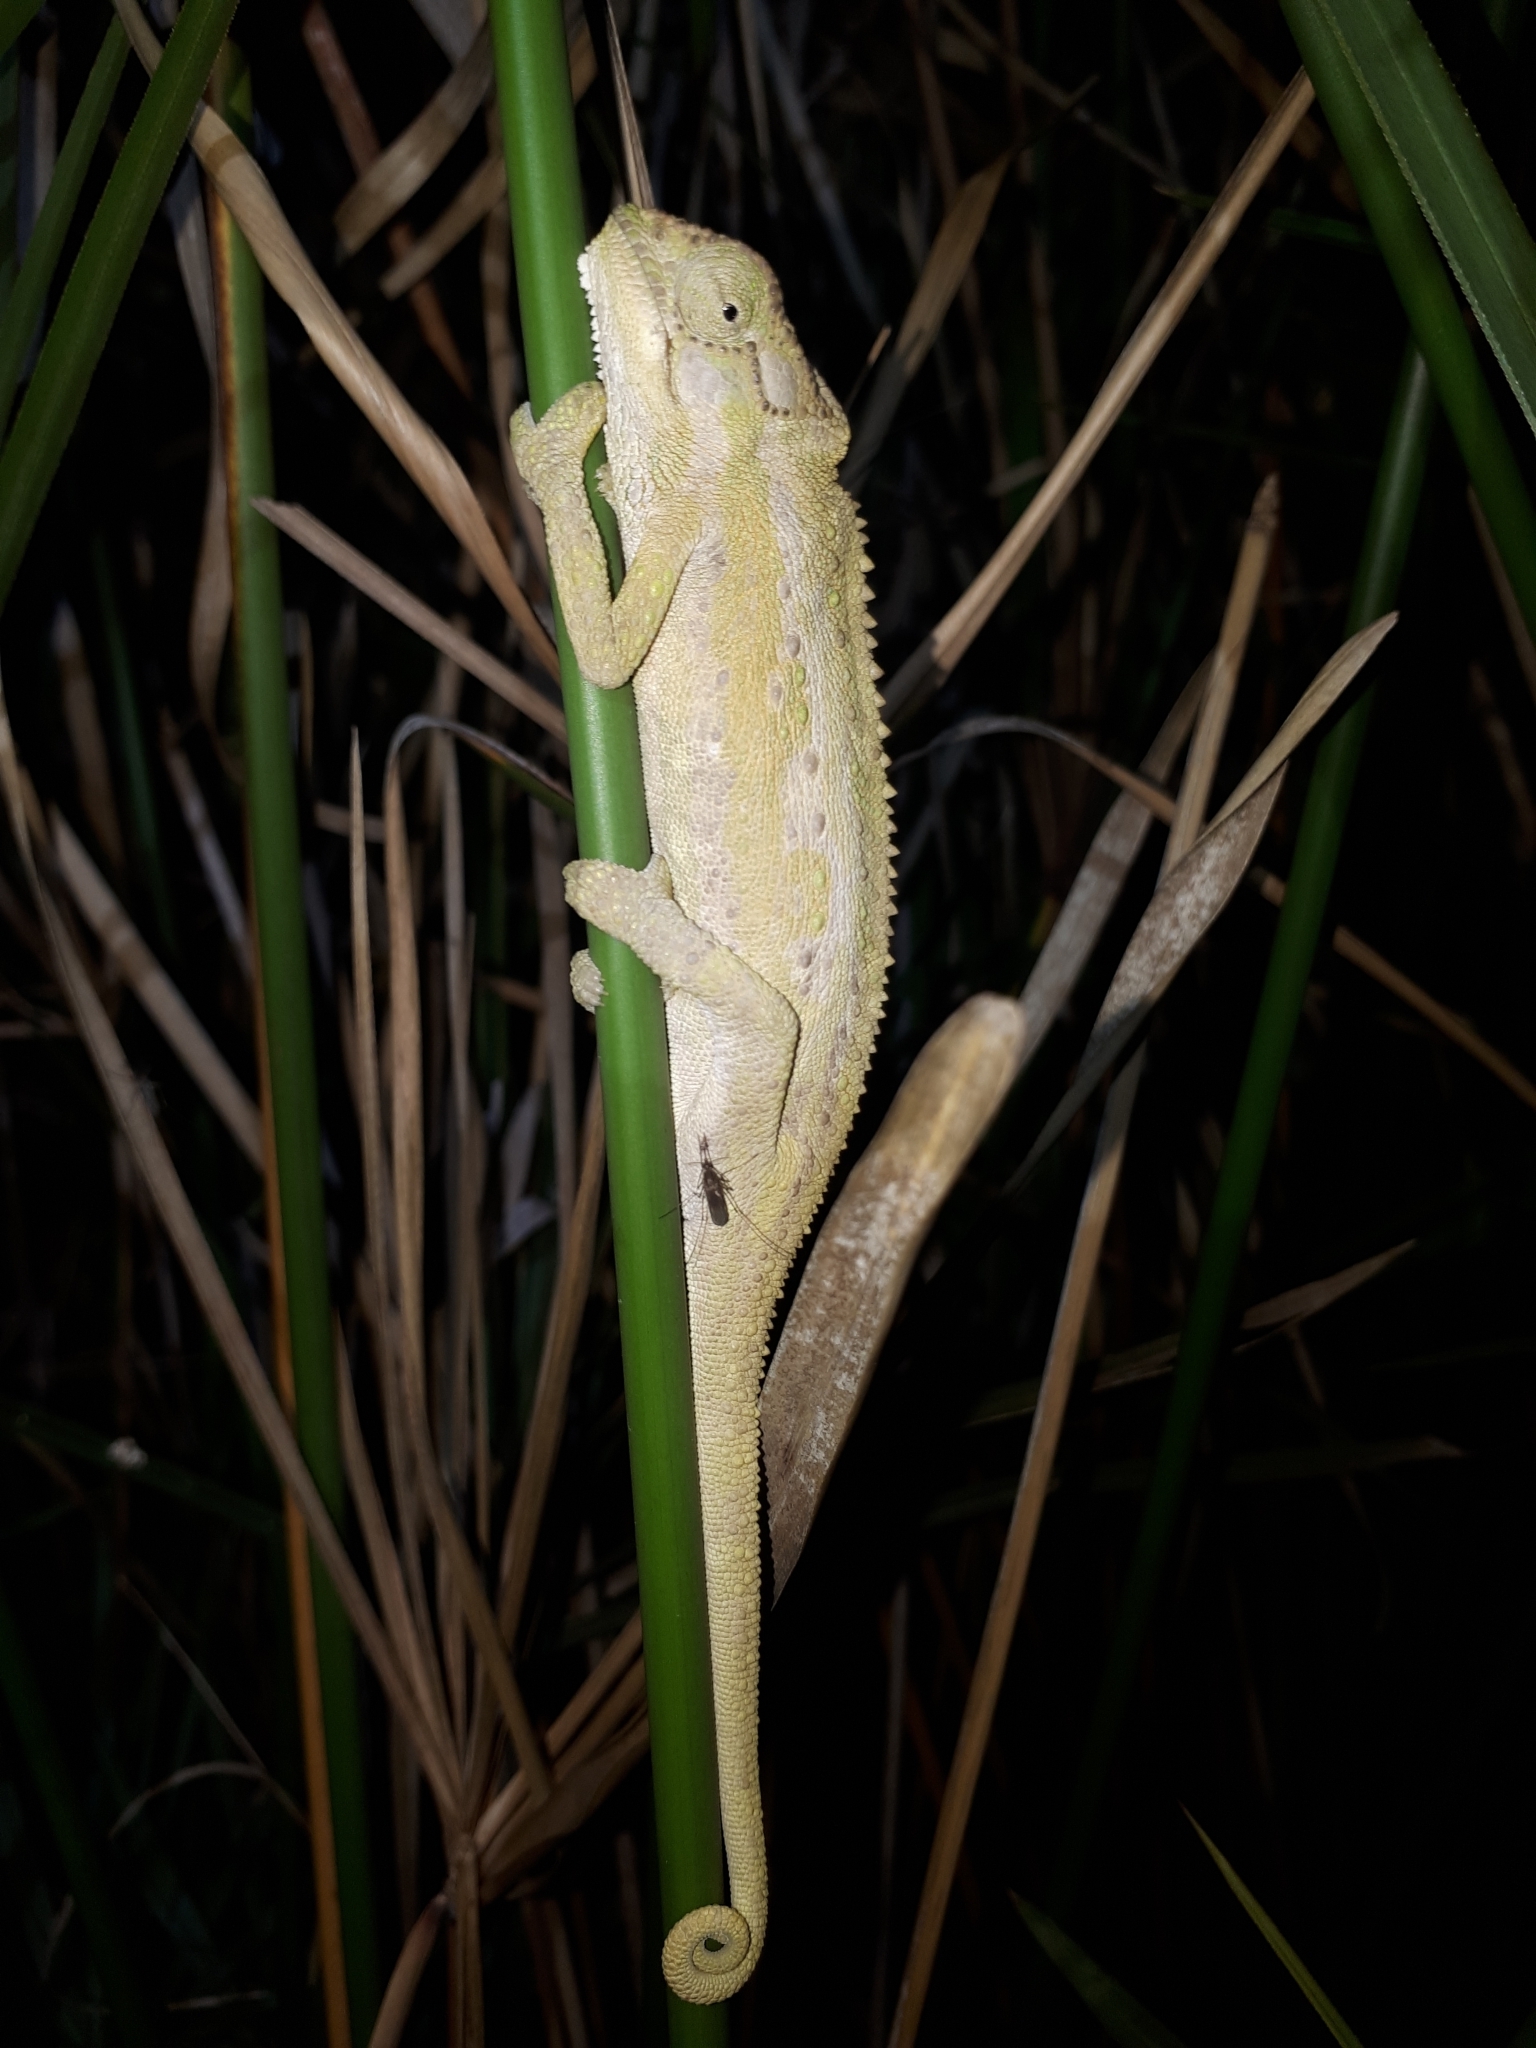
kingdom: Animalia
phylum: Chordata
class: Squamata
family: Chamaeleonidae
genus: Bradypodion
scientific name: Bradypodion pumilum
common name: Cape dwarf chameleon
